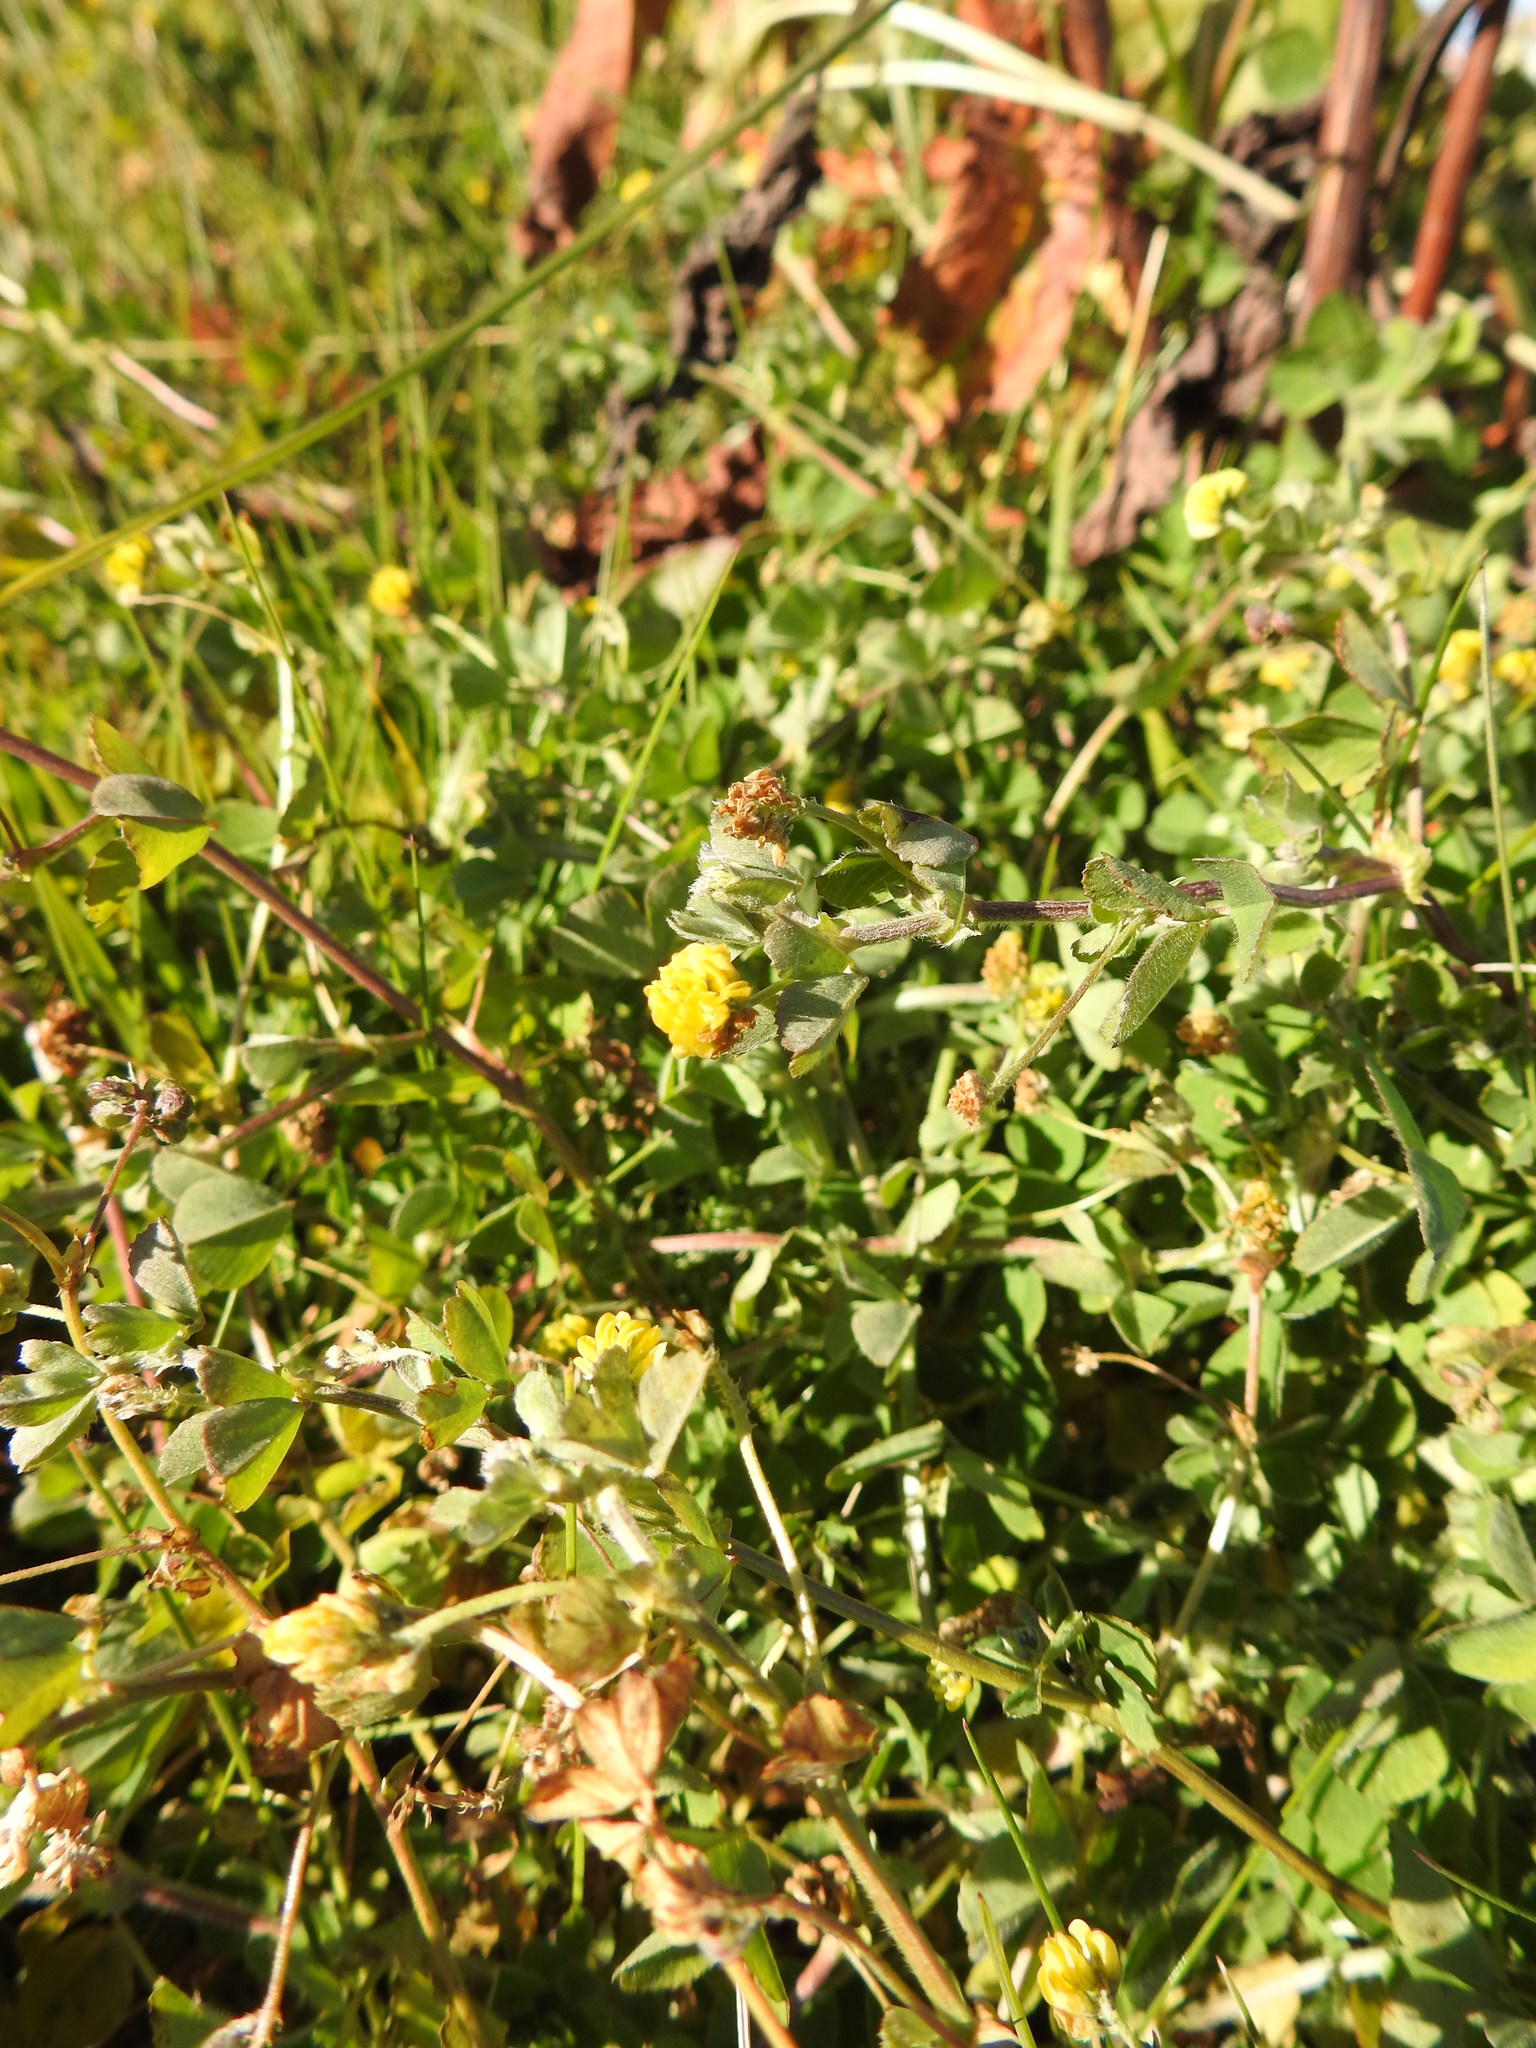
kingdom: Plantae
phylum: Tracheophyta
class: Magnoliopsida
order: Fabales
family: Fabaceae
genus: Medicago
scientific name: Medicago lupulina
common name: Black medick
